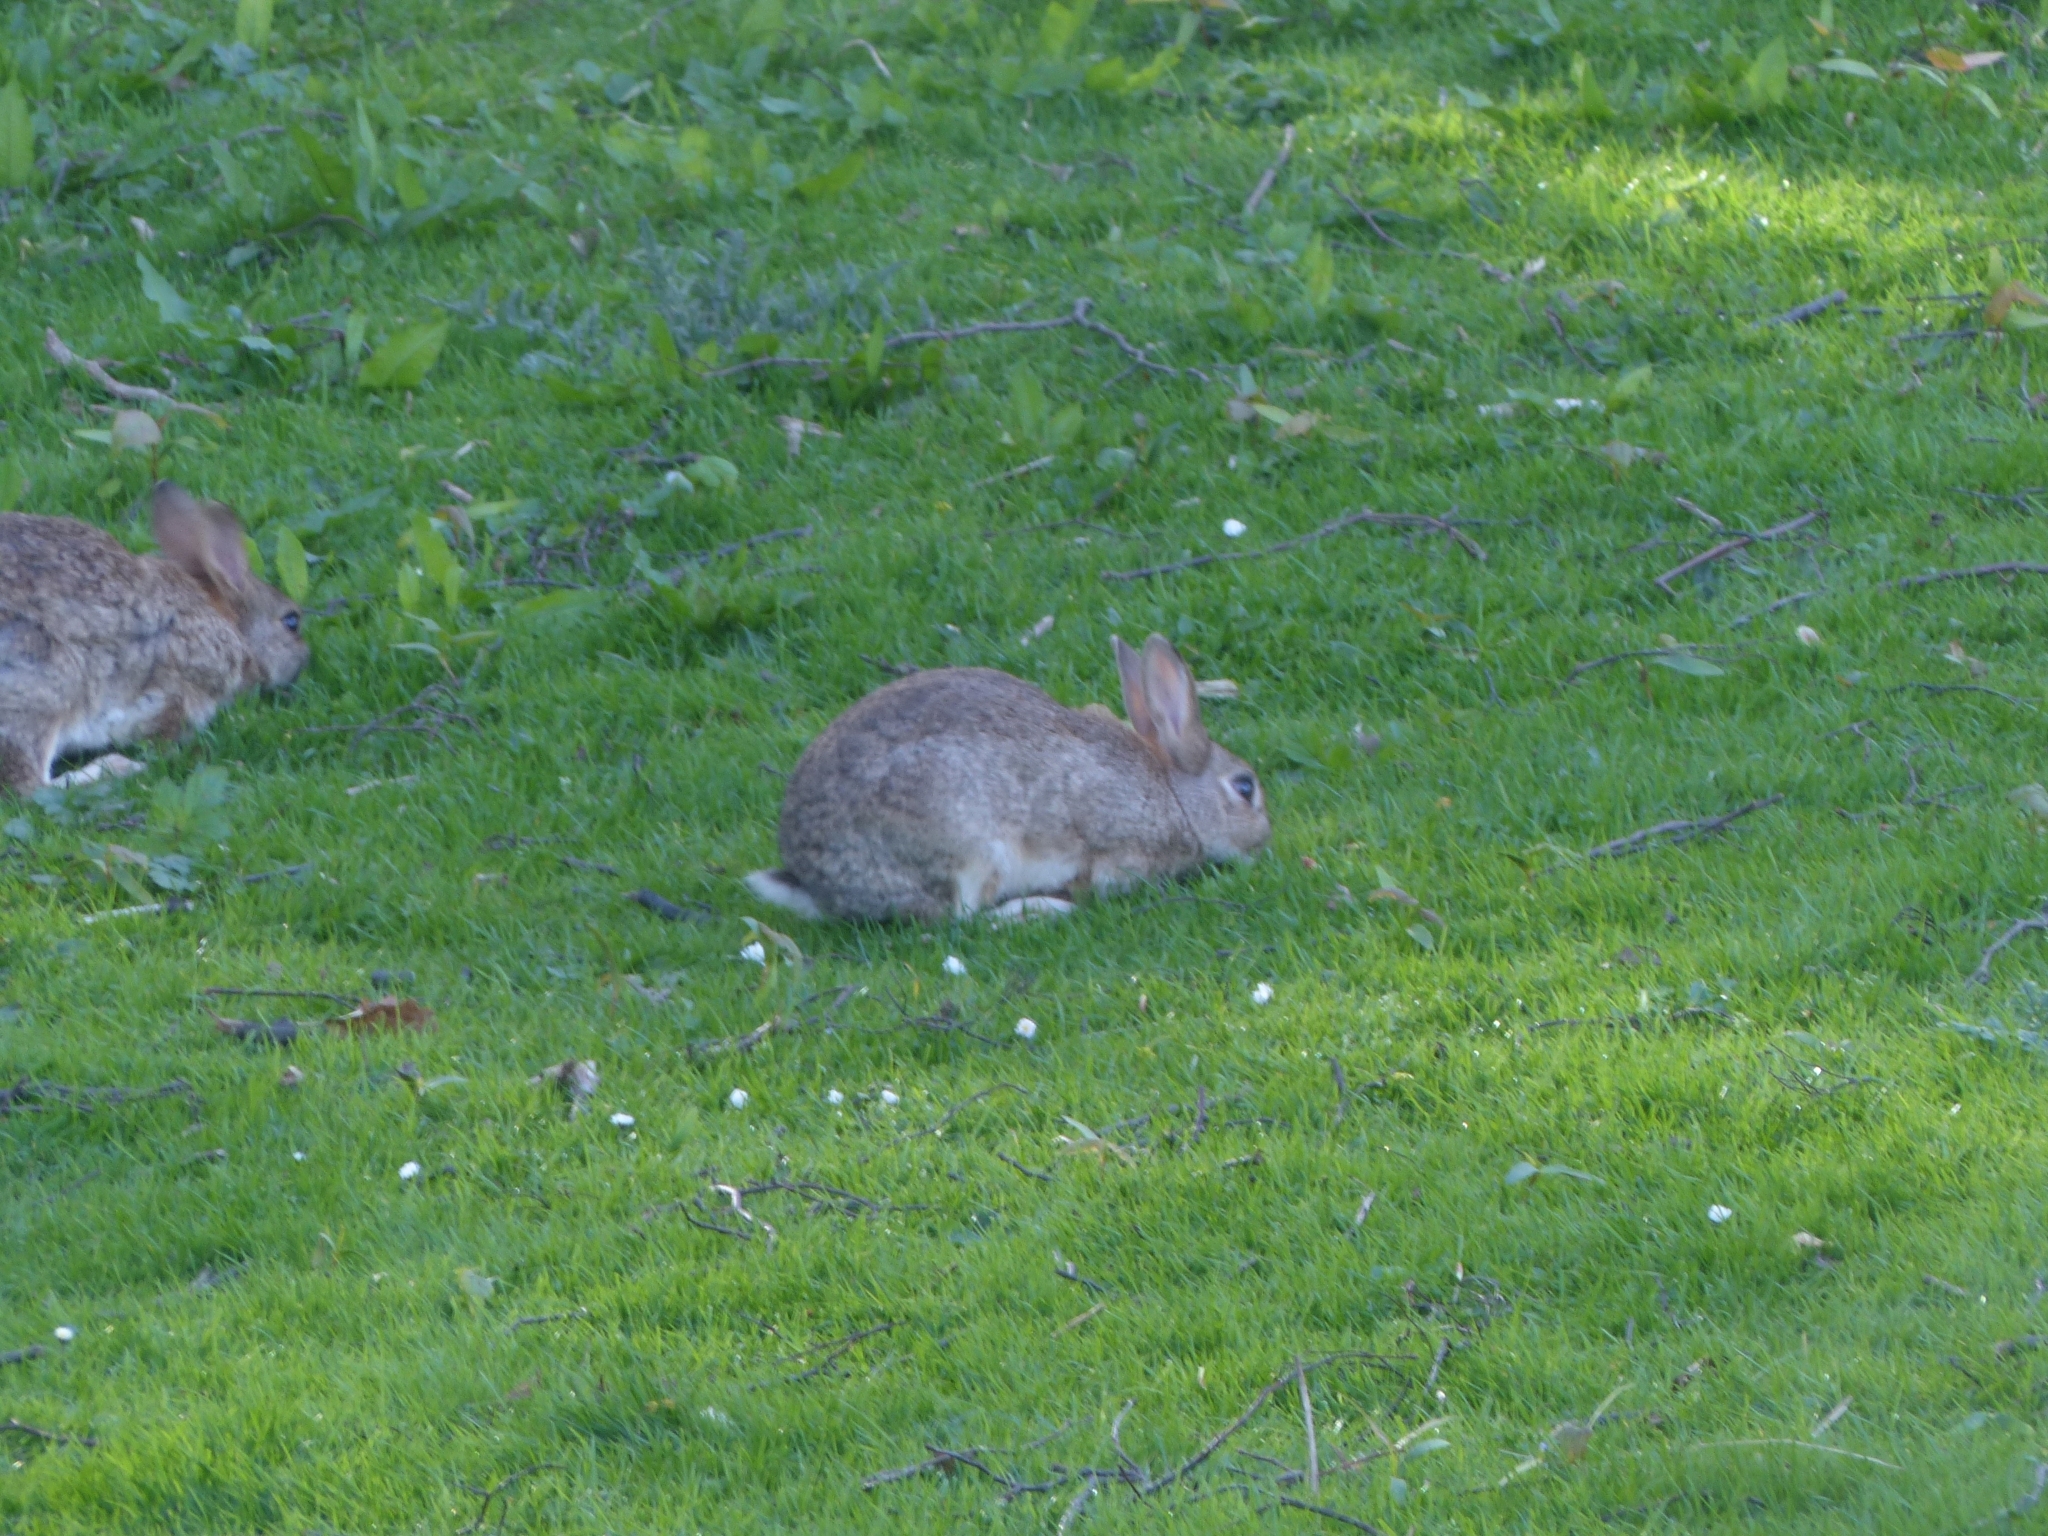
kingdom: Animalia
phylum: Chordata
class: Mammalia
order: Lagomorpha
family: Leporidae
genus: Oryctolagus
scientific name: Oryctolagus cuniculus
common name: European rabbit
